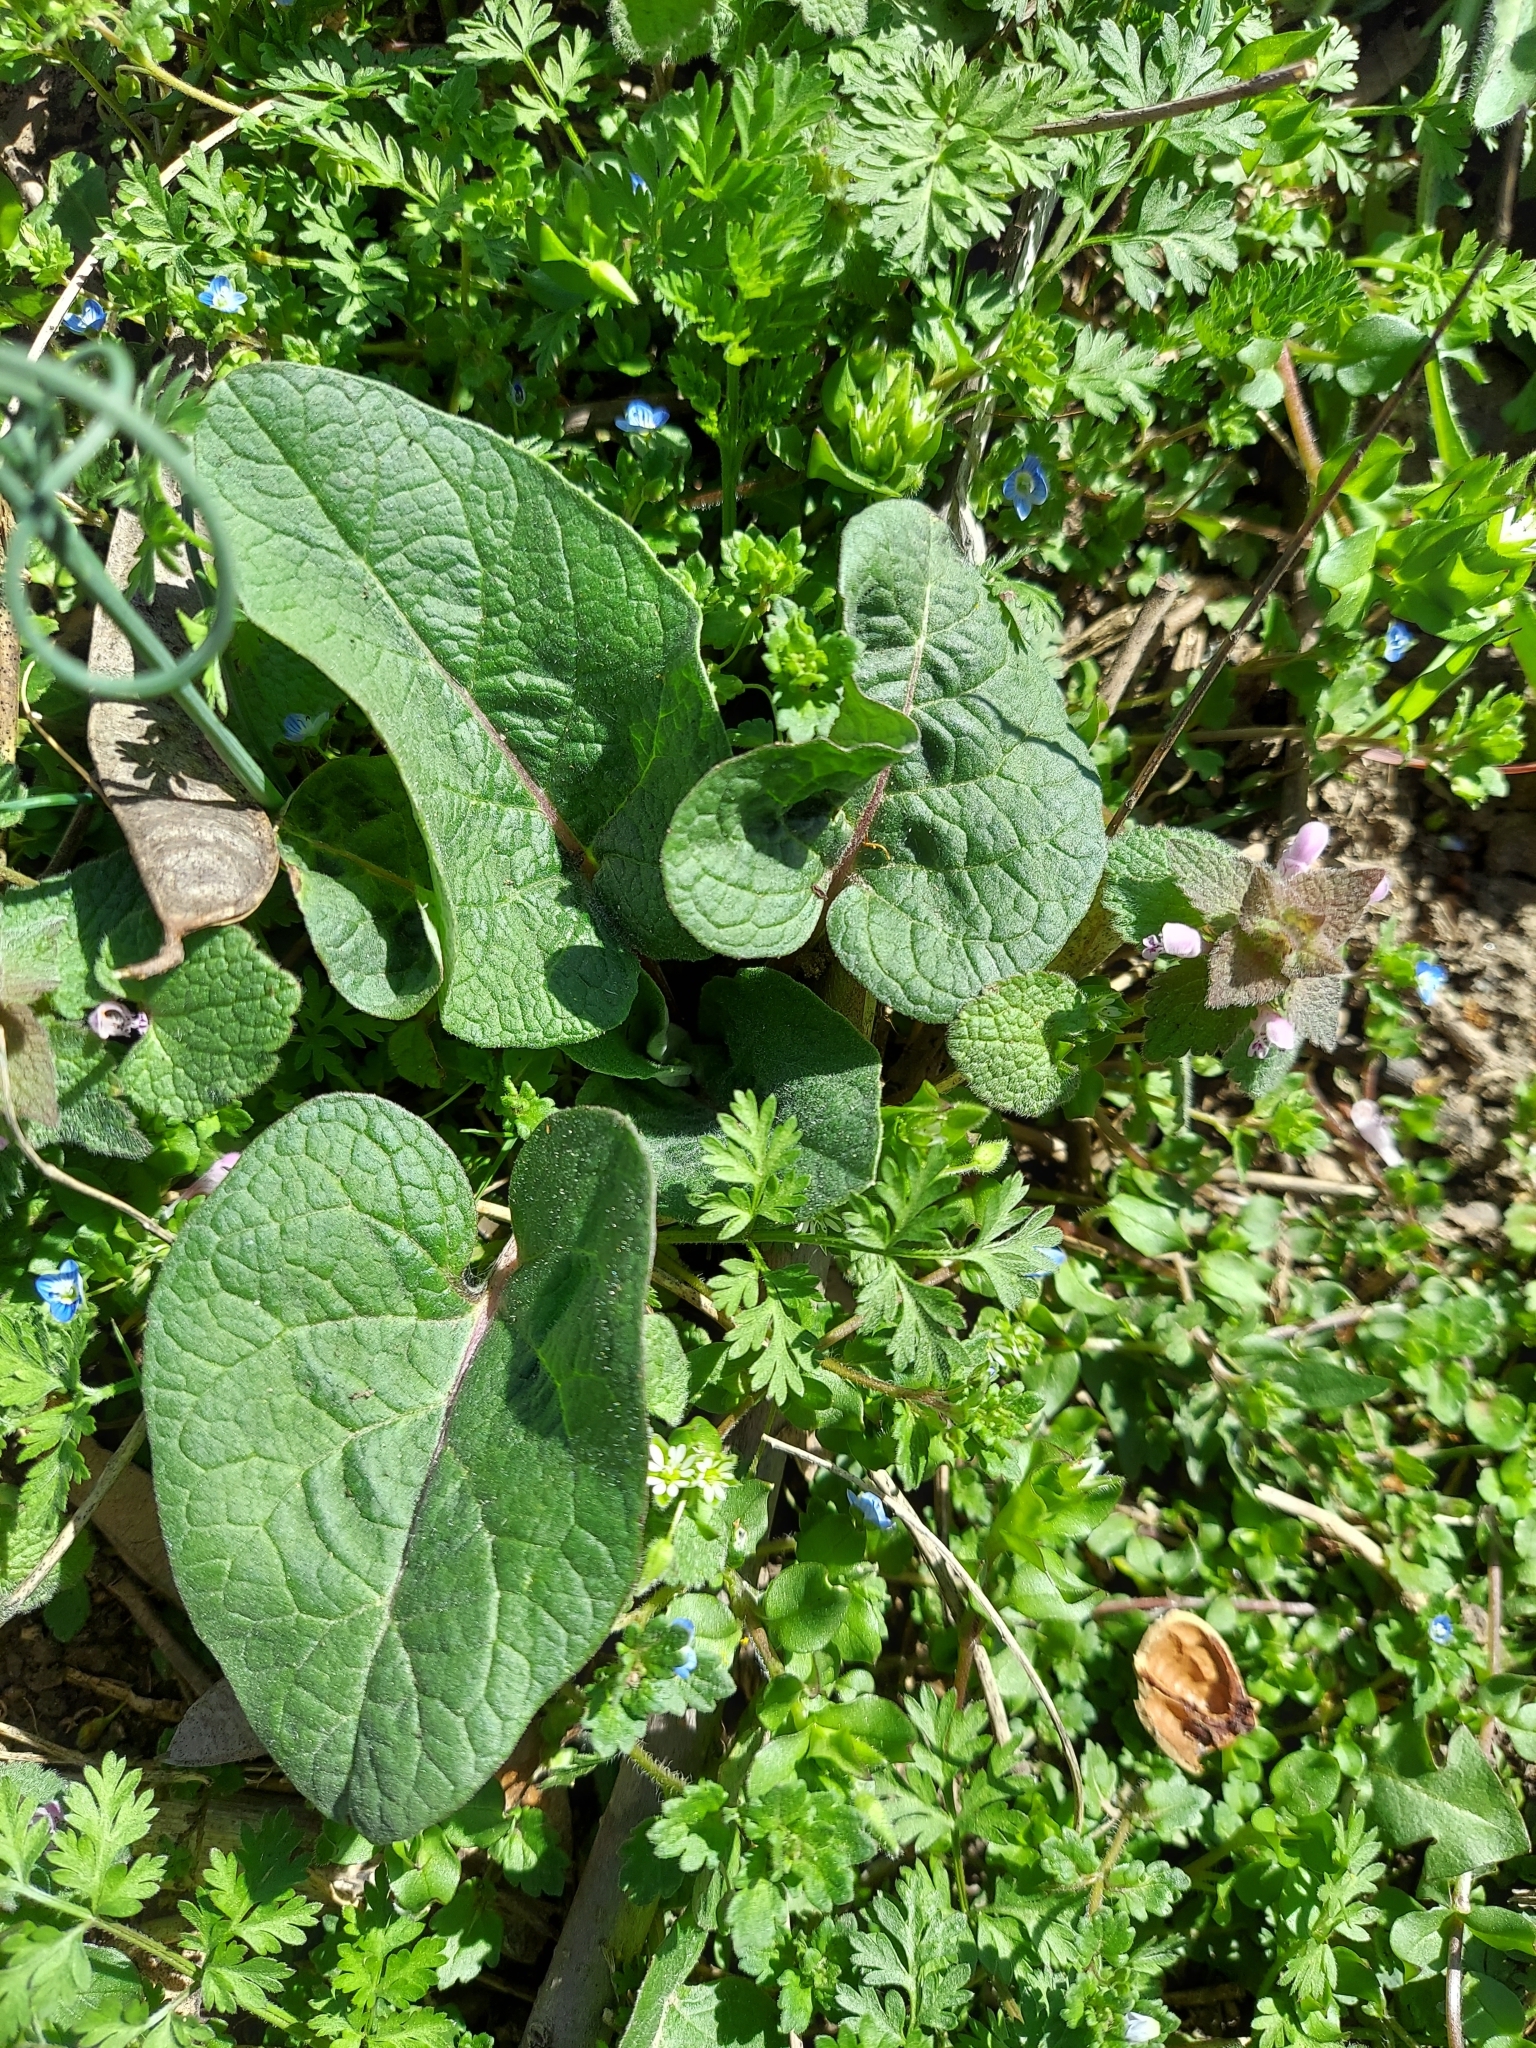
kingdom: Plantae
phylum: Tracheophyta
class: Magnoliopsida
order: Asterales
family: Asteraceae
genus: Arctium
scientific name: Arctium minus
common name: Lesser burdock
